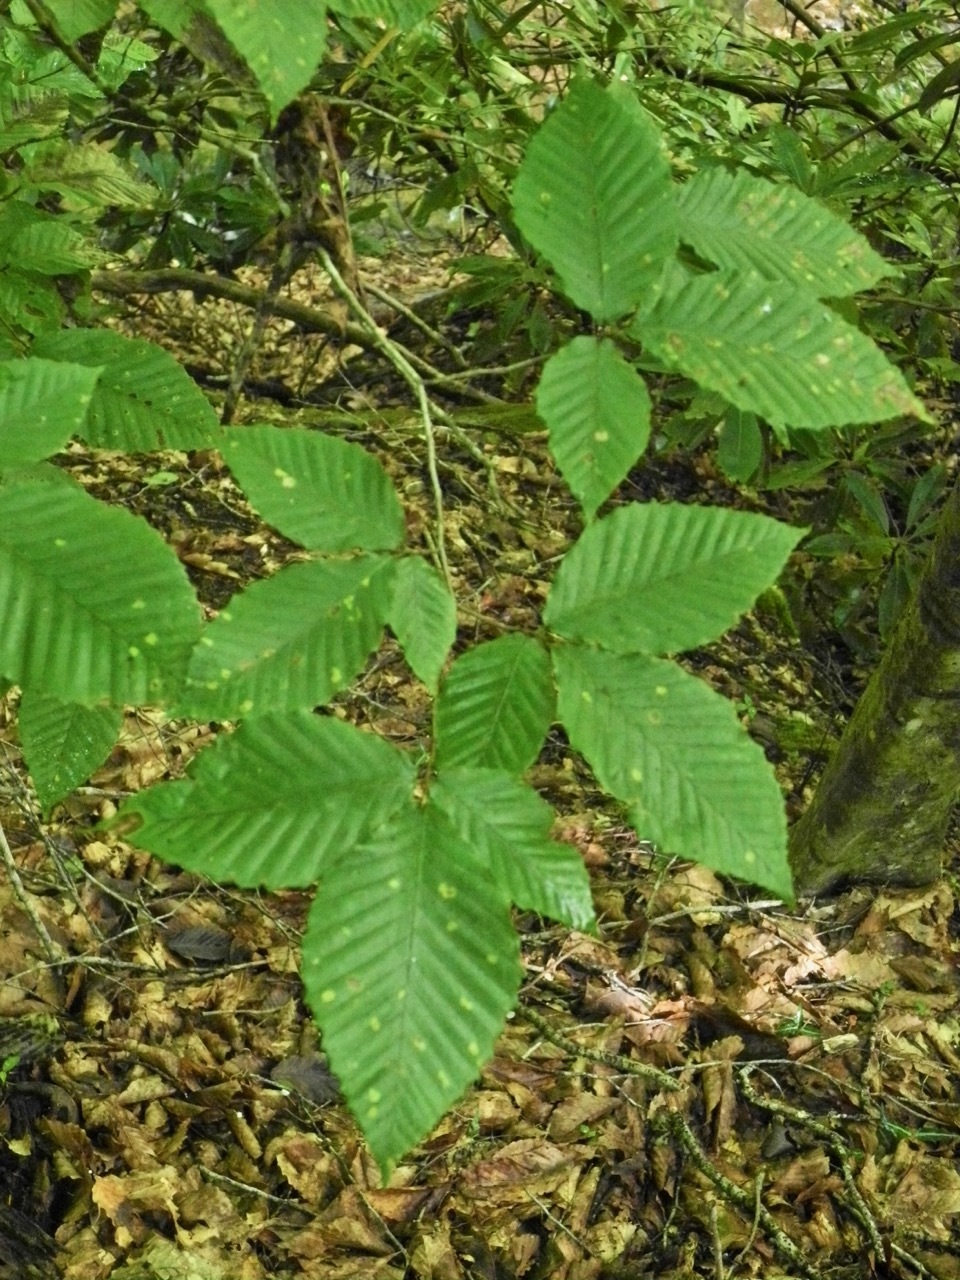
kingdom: Plantae
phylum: Tracheophyta
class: Magnoliopsida
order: Fagales
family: Fagaceae
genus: Fagus
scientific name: Fagus grandifolia
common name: American beech
